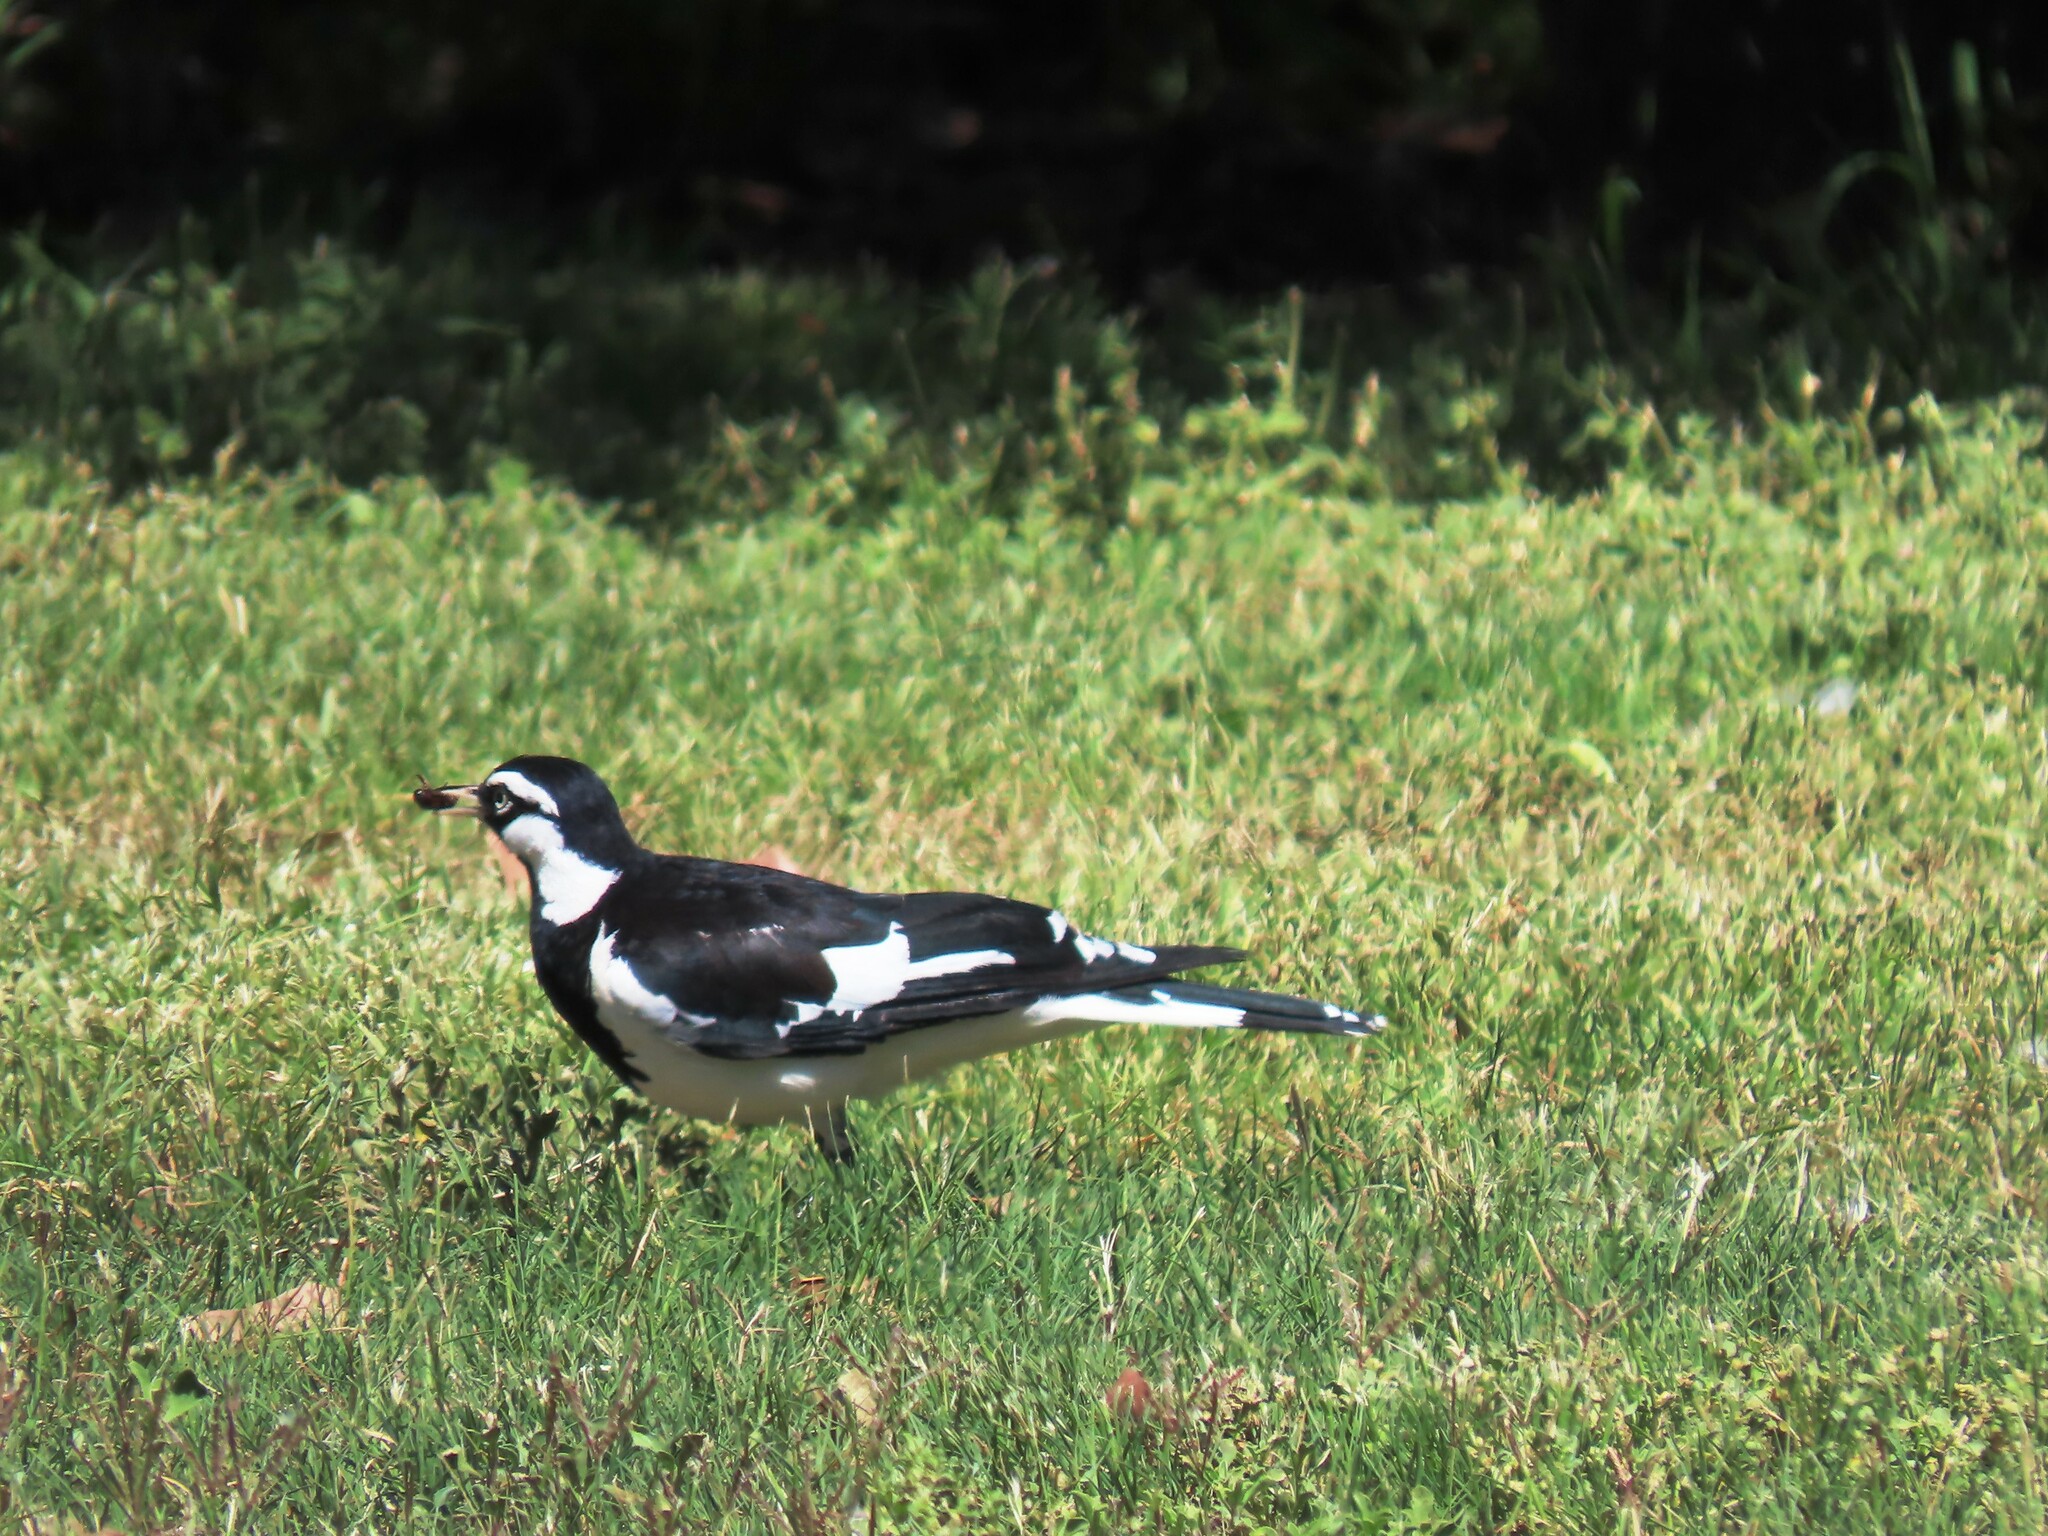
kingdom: Animalia
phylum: Chordata
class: Aves
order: Passeriformes
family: Monarchidae
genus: Grallina
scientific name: Grallina cyanoleuca
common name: Magpie-lark
